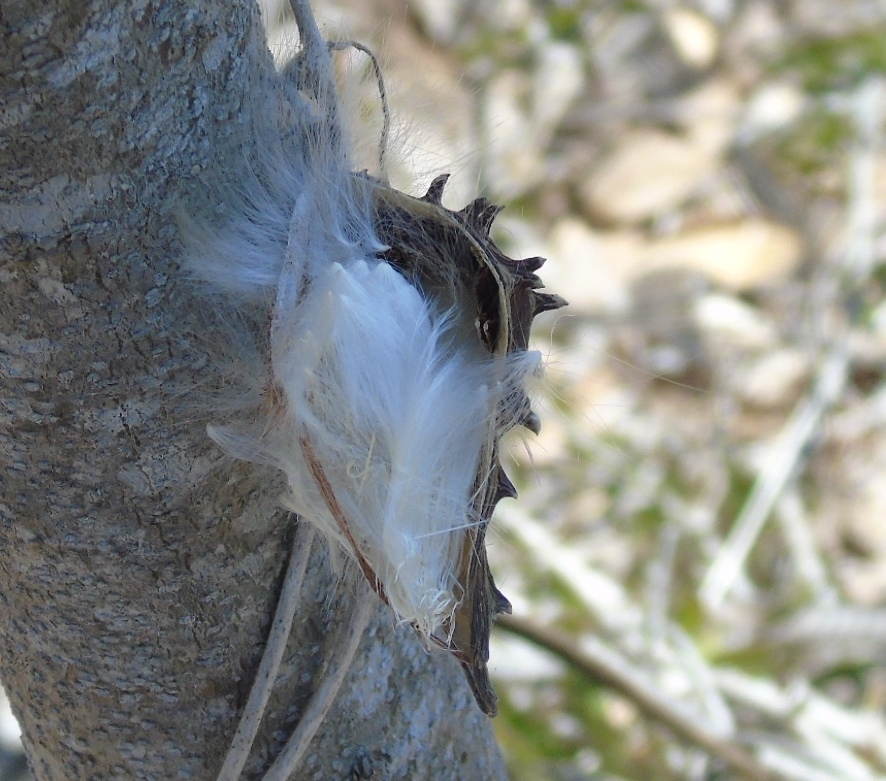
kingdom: Plantae
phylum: Tracheophyta
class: Magnoliopsida
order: Gentianales
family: Apocynaceae
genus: Dictyanthus
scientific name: Dictyanthus
